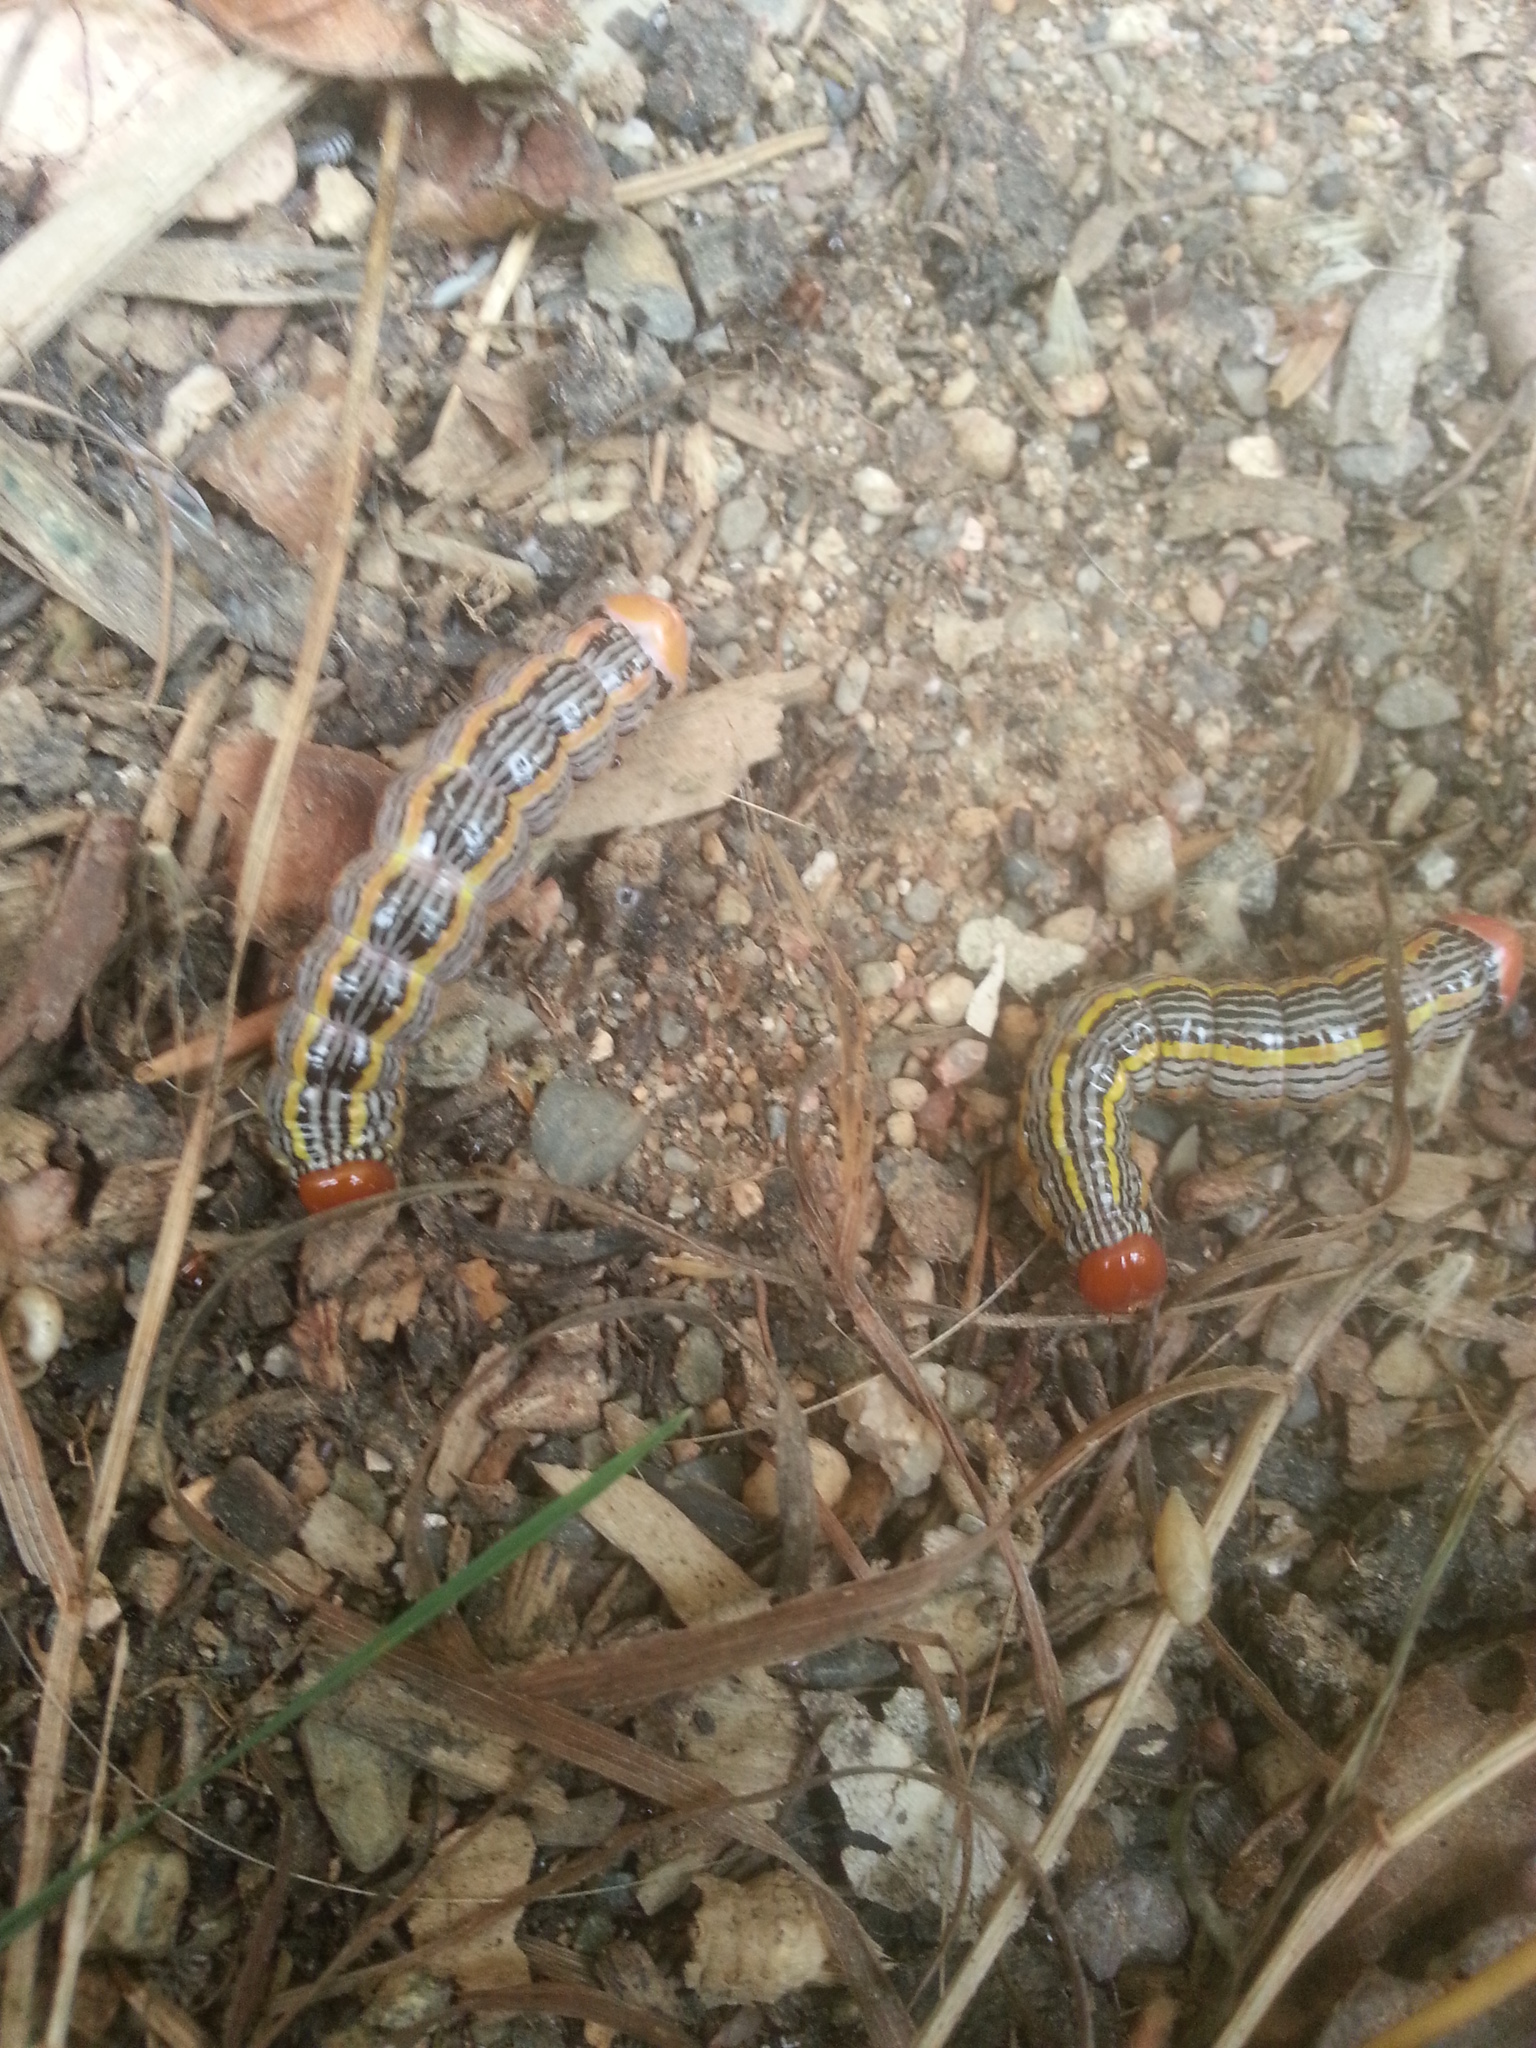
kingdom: Animalia
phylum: Arthropoda
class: Insecta
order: Lepidoptera
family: Notodontidae
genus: Symmerista
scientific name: Symmerista canicosta
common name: Red-humped oakworm moth
